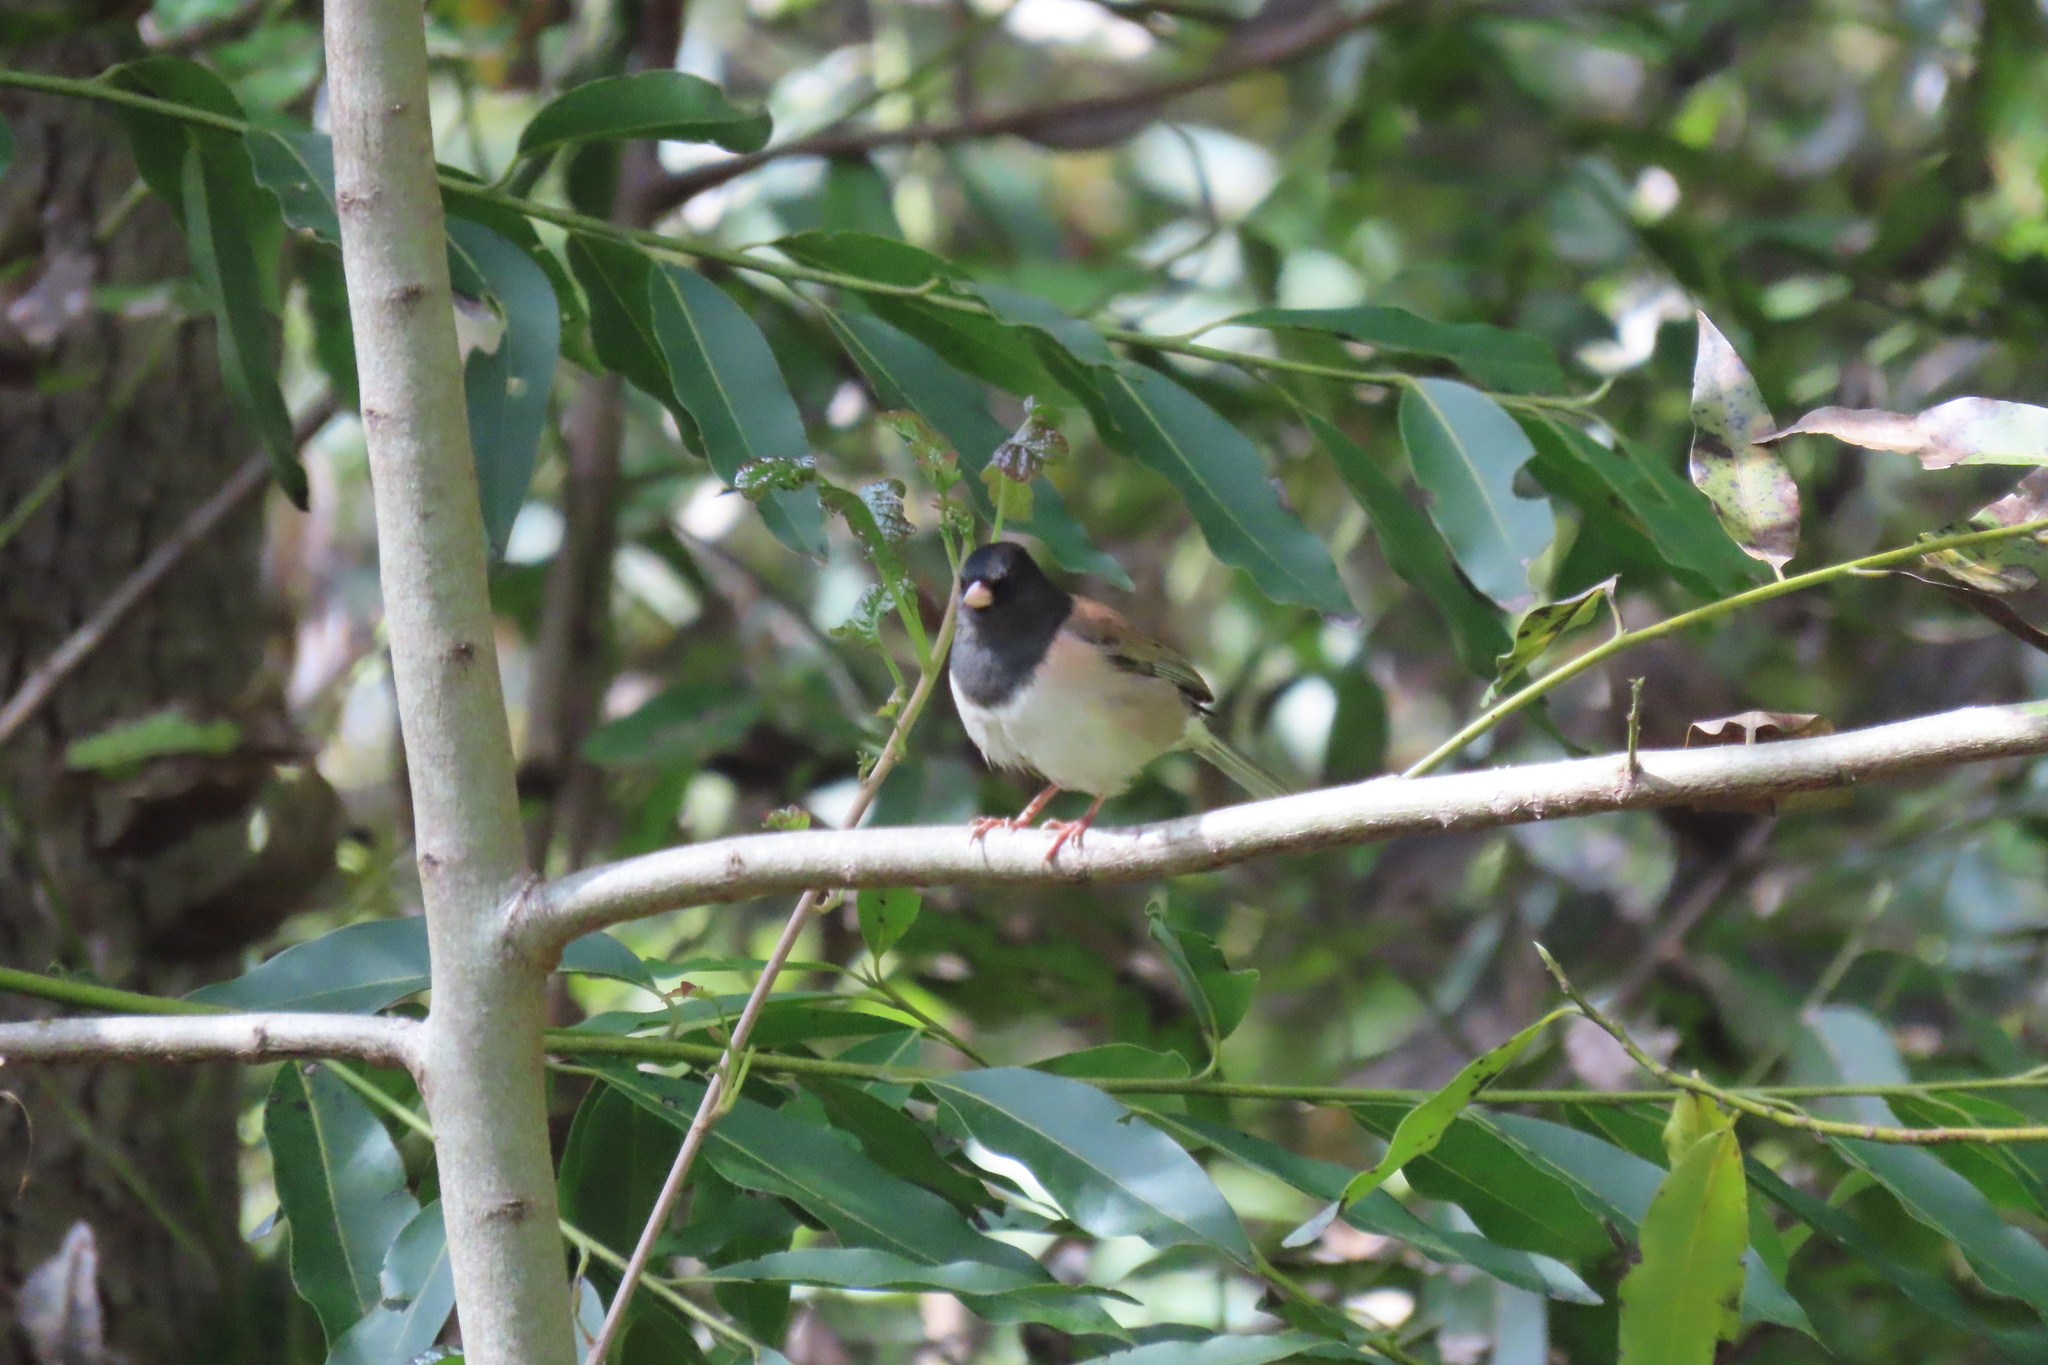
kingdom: Animalia
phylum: Chordata
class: Aves
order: Passeriformes
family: Passerellidae
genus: Junco
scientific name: Junco hyemalis
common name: Dark-eyed junco
